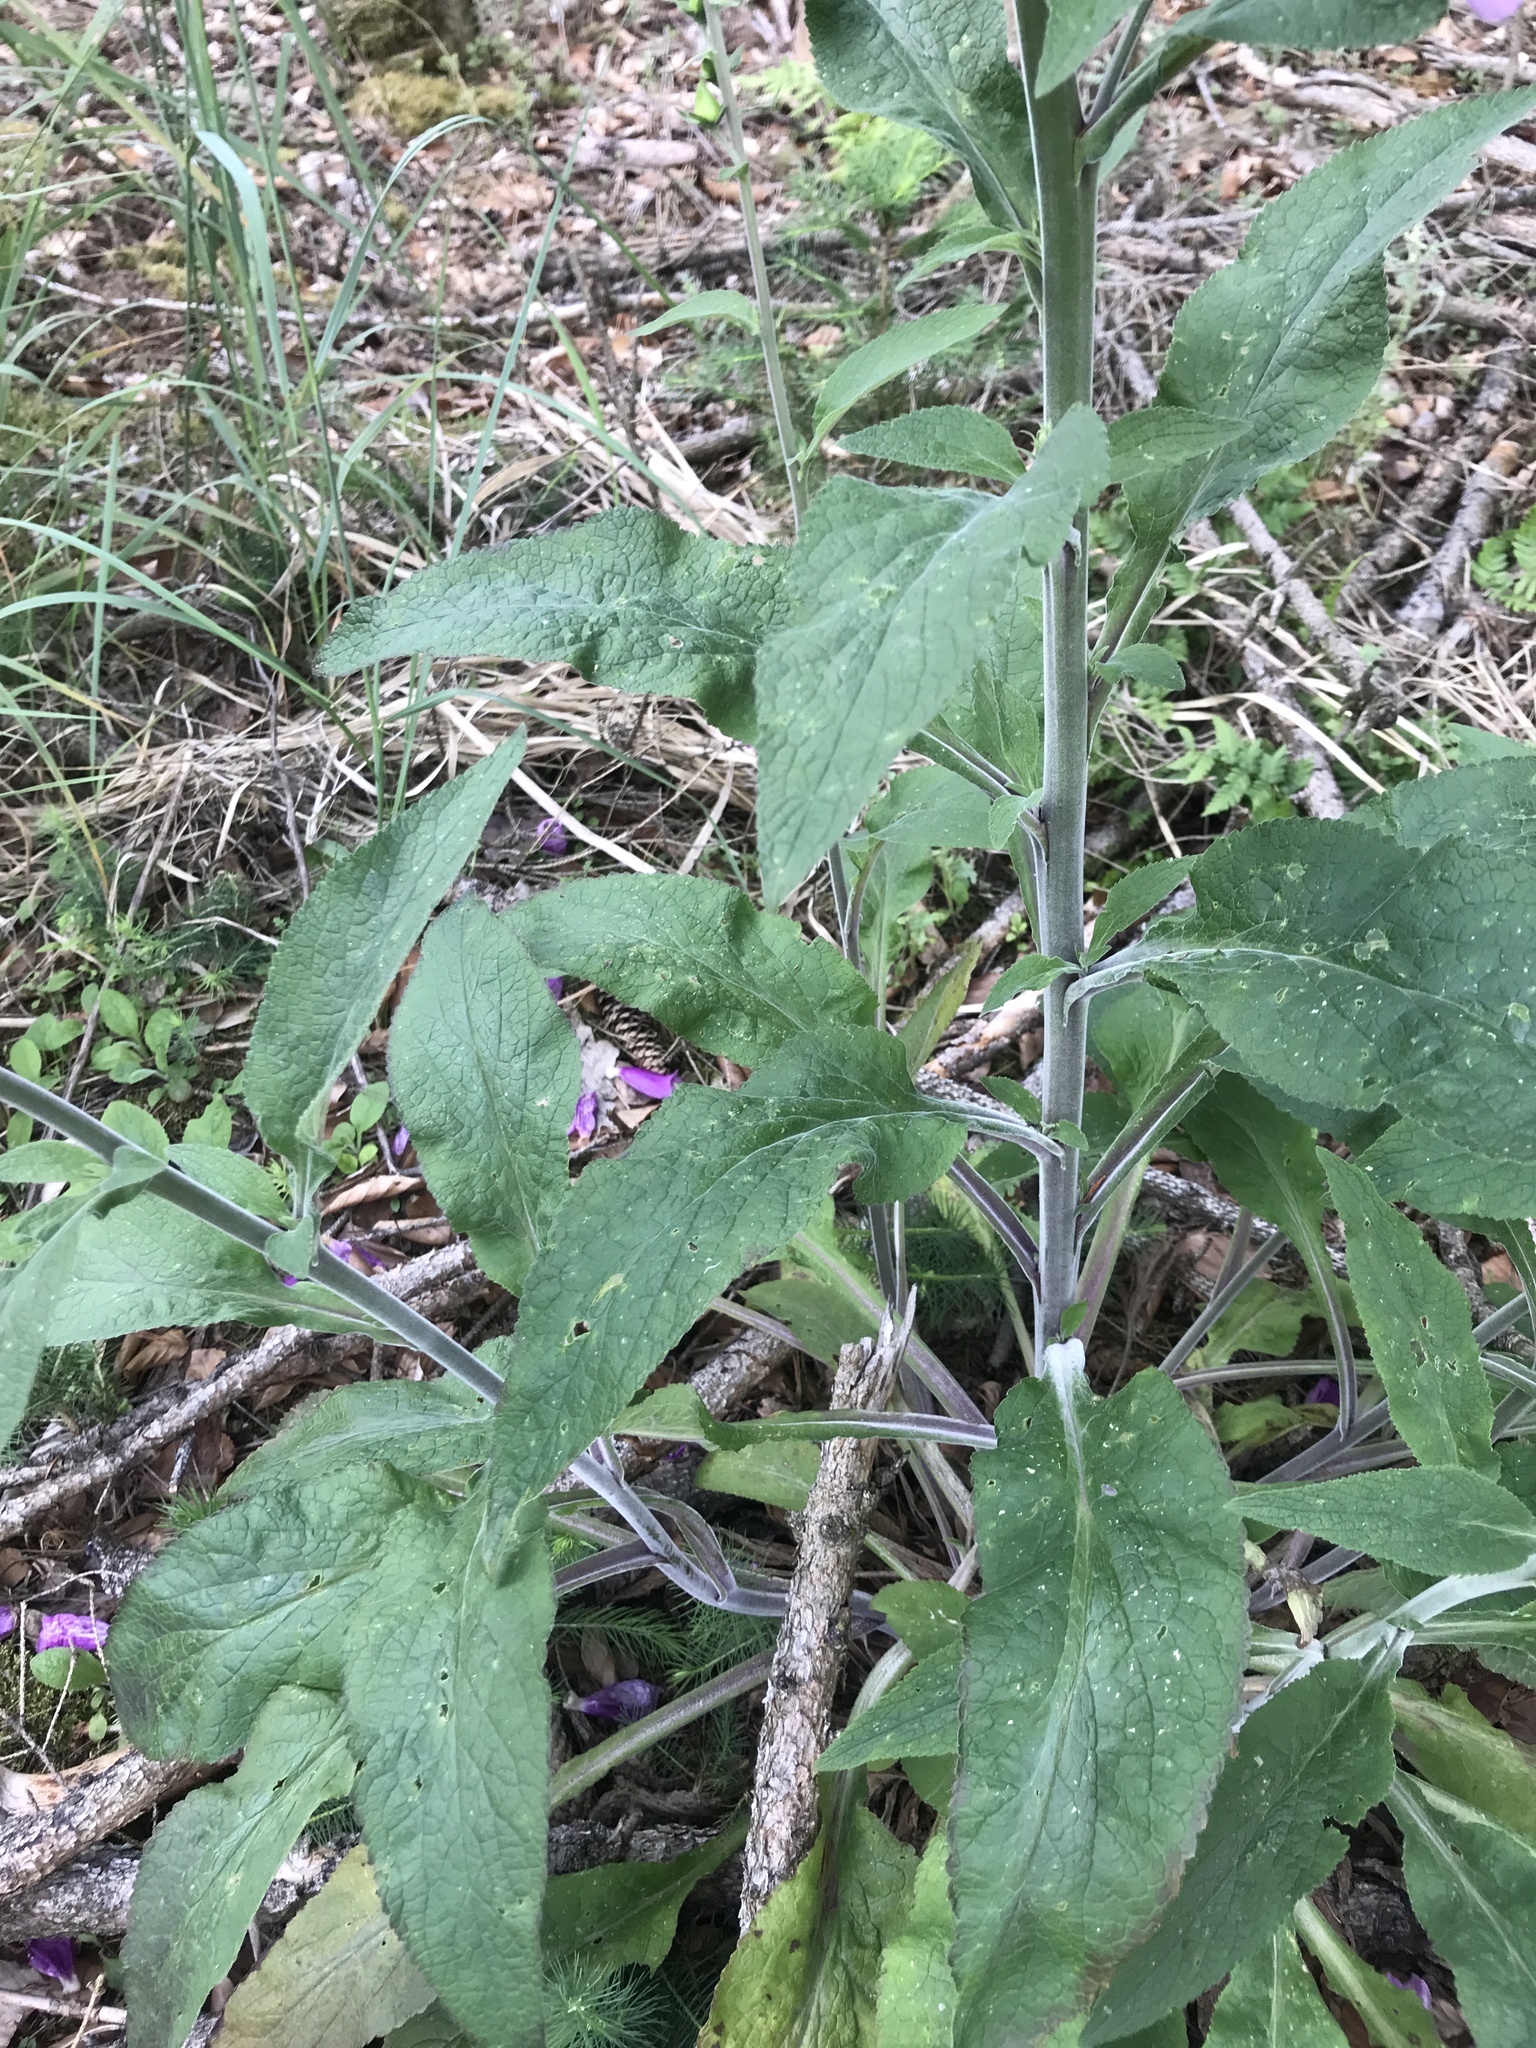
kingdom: Plantae
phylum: Tracheophyta
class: Magnoliopsida
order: Lamiales
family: Plantaginaceae
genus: Digitalis
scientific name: Digitalis purpurea
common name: Foxglove
